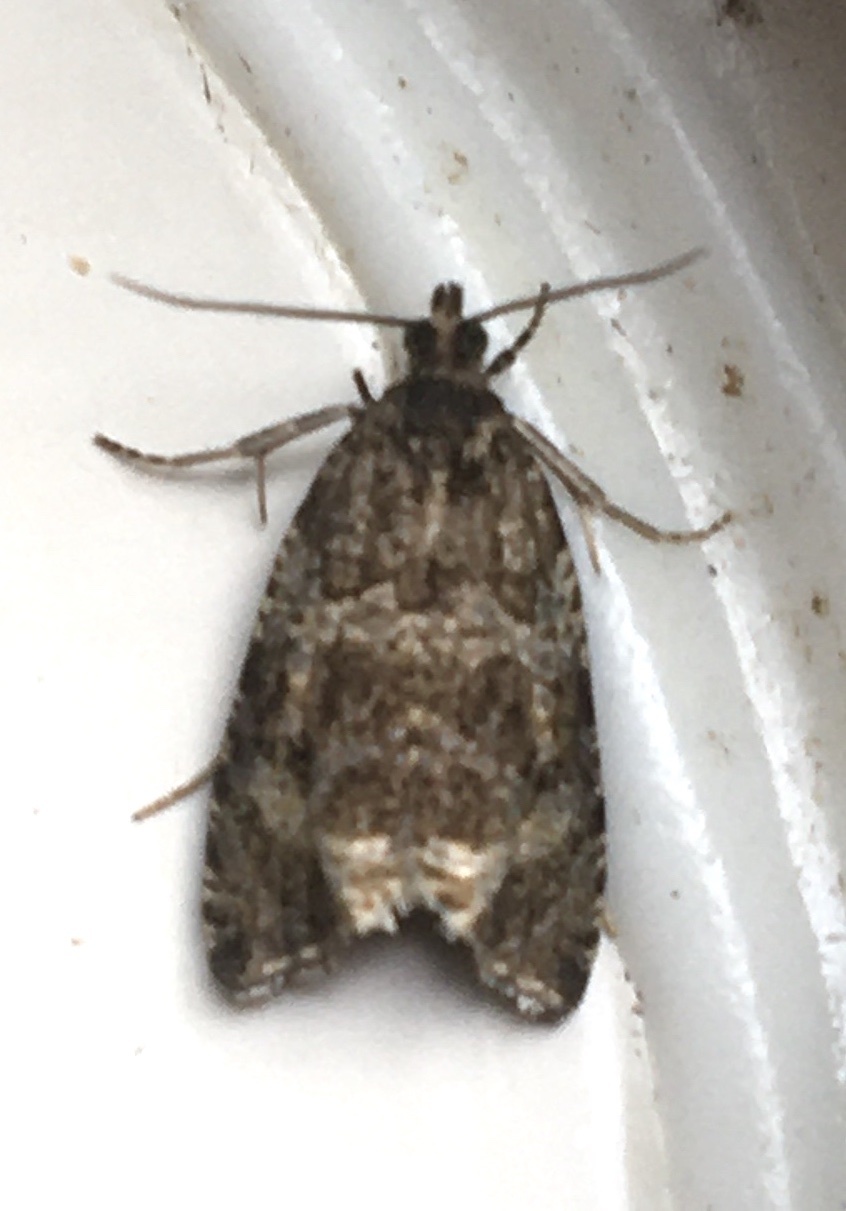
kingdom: Animalia
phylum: Arthropoda
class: Insecta
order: Lepidoptera
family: Tortricidae
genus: Syricoris
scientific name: Syricoris lacunana
